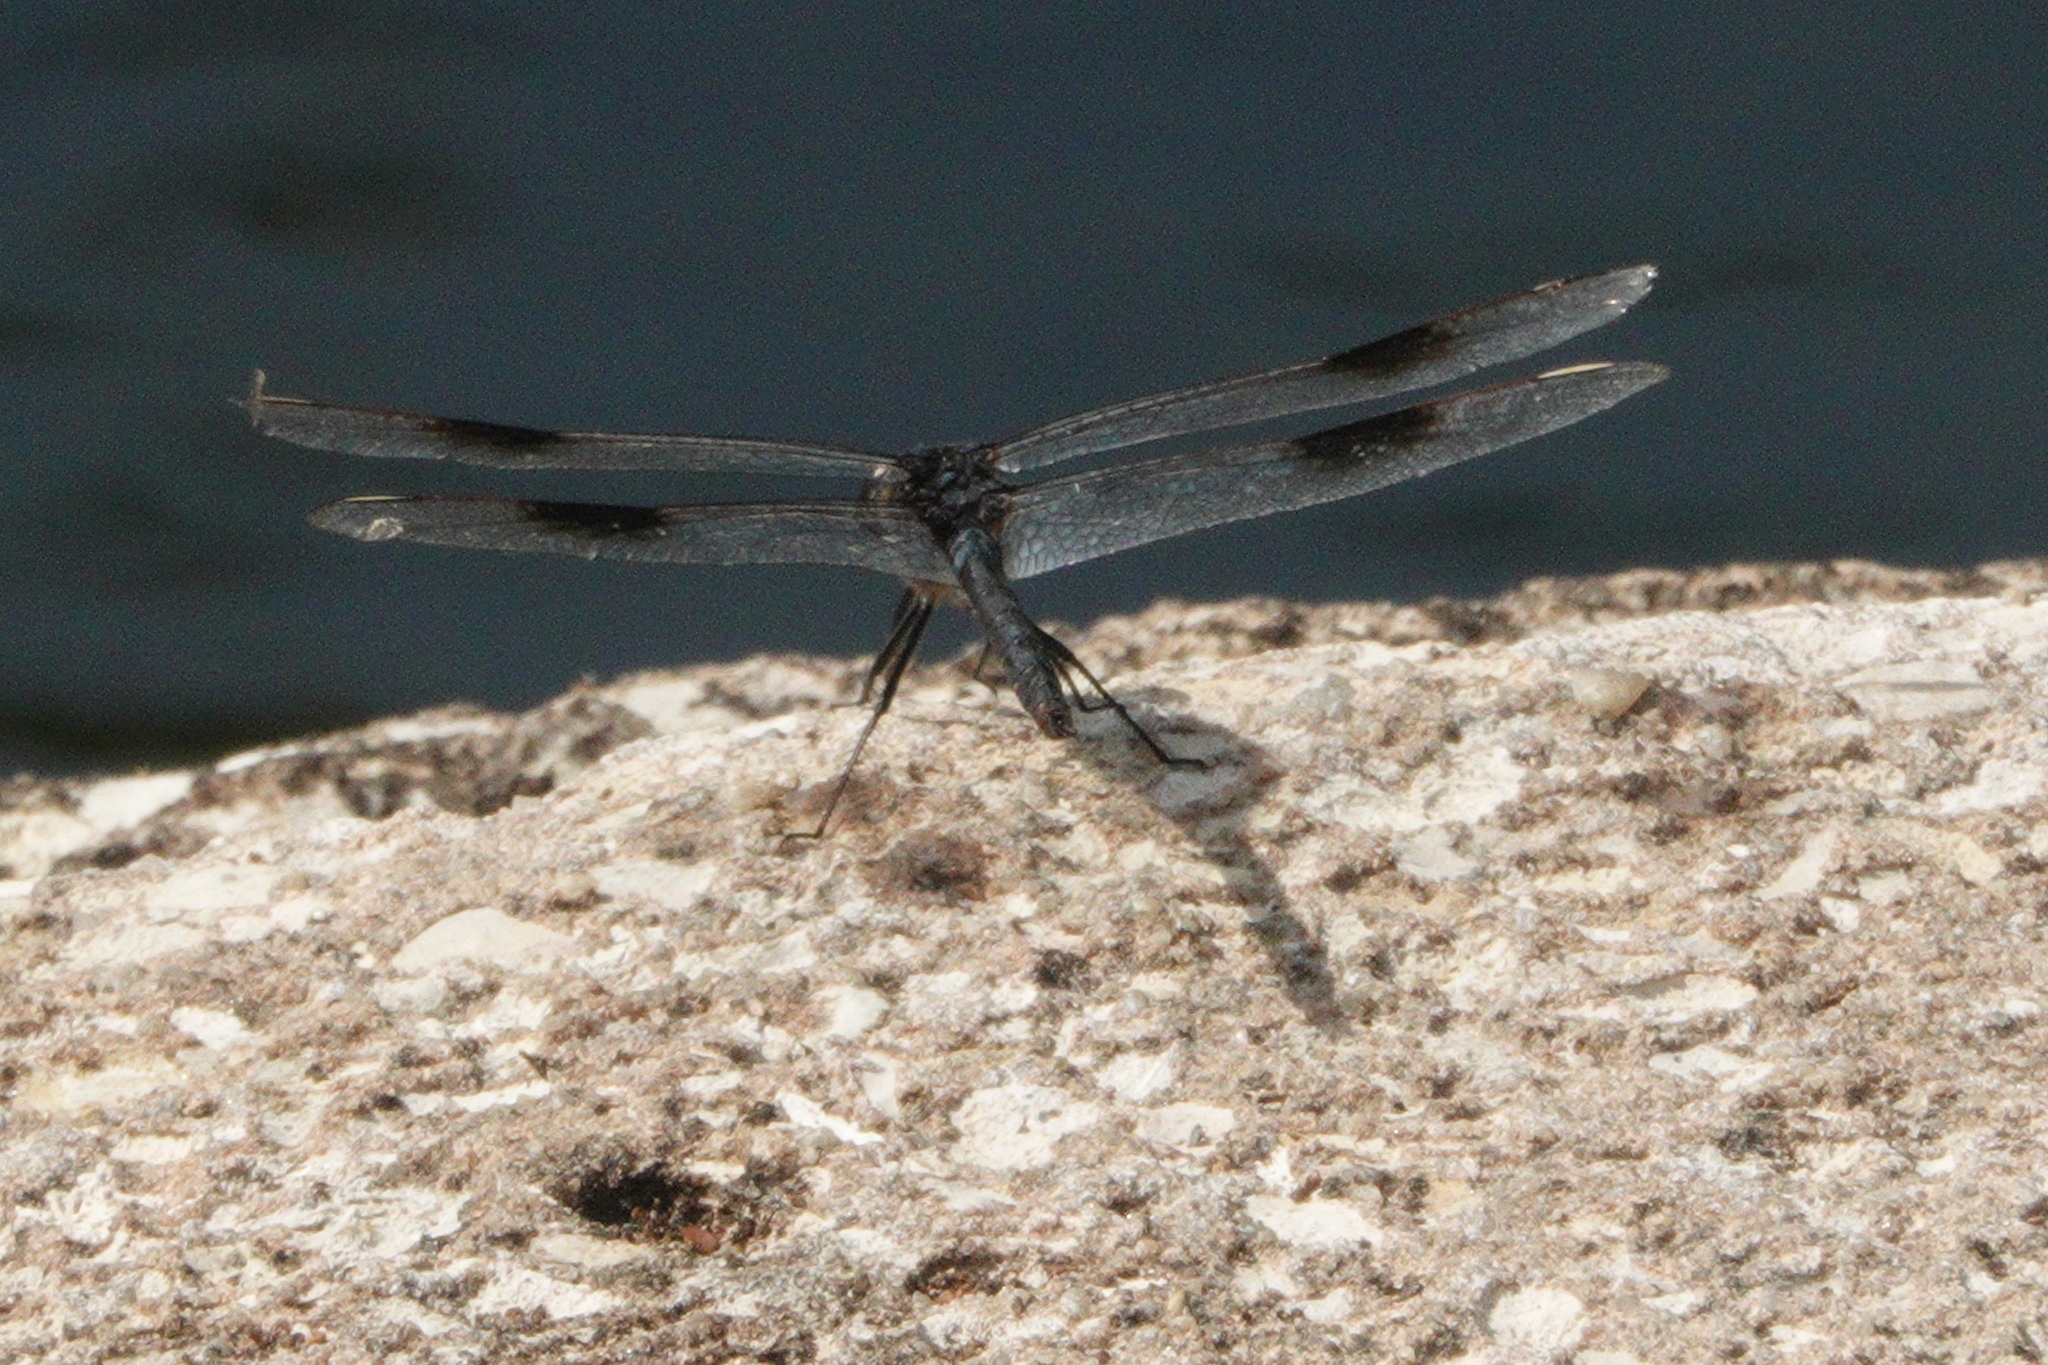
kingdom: Animalia
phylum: Arthropoda
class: Insecta
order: Odonata
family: Libellulidae
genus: Brachymesia
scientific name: Brachymesia gravida
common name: Four-spotted pennant
